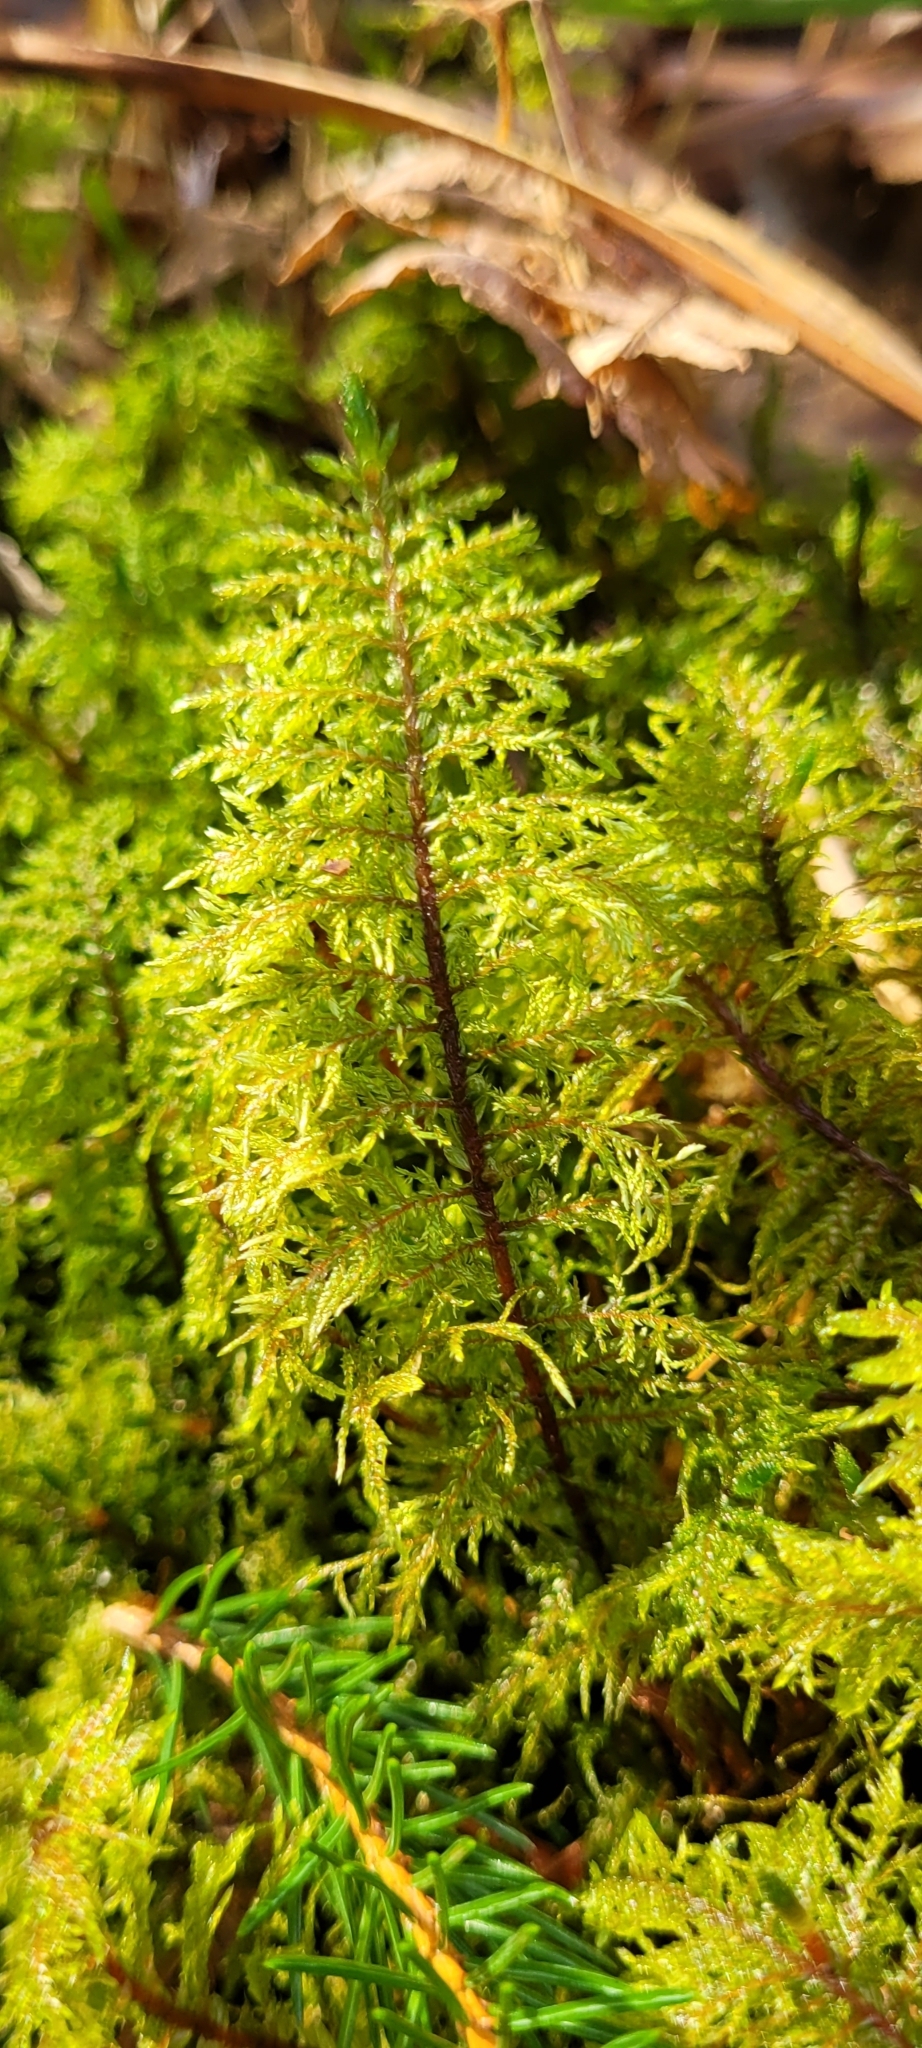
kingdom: Plantae
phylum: Bryophyta
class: Bryopsida
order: Hypnales
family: Hylocomiaceae
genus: Hylocomium
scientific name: Hylocomium splendens
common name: Stairstep moss
